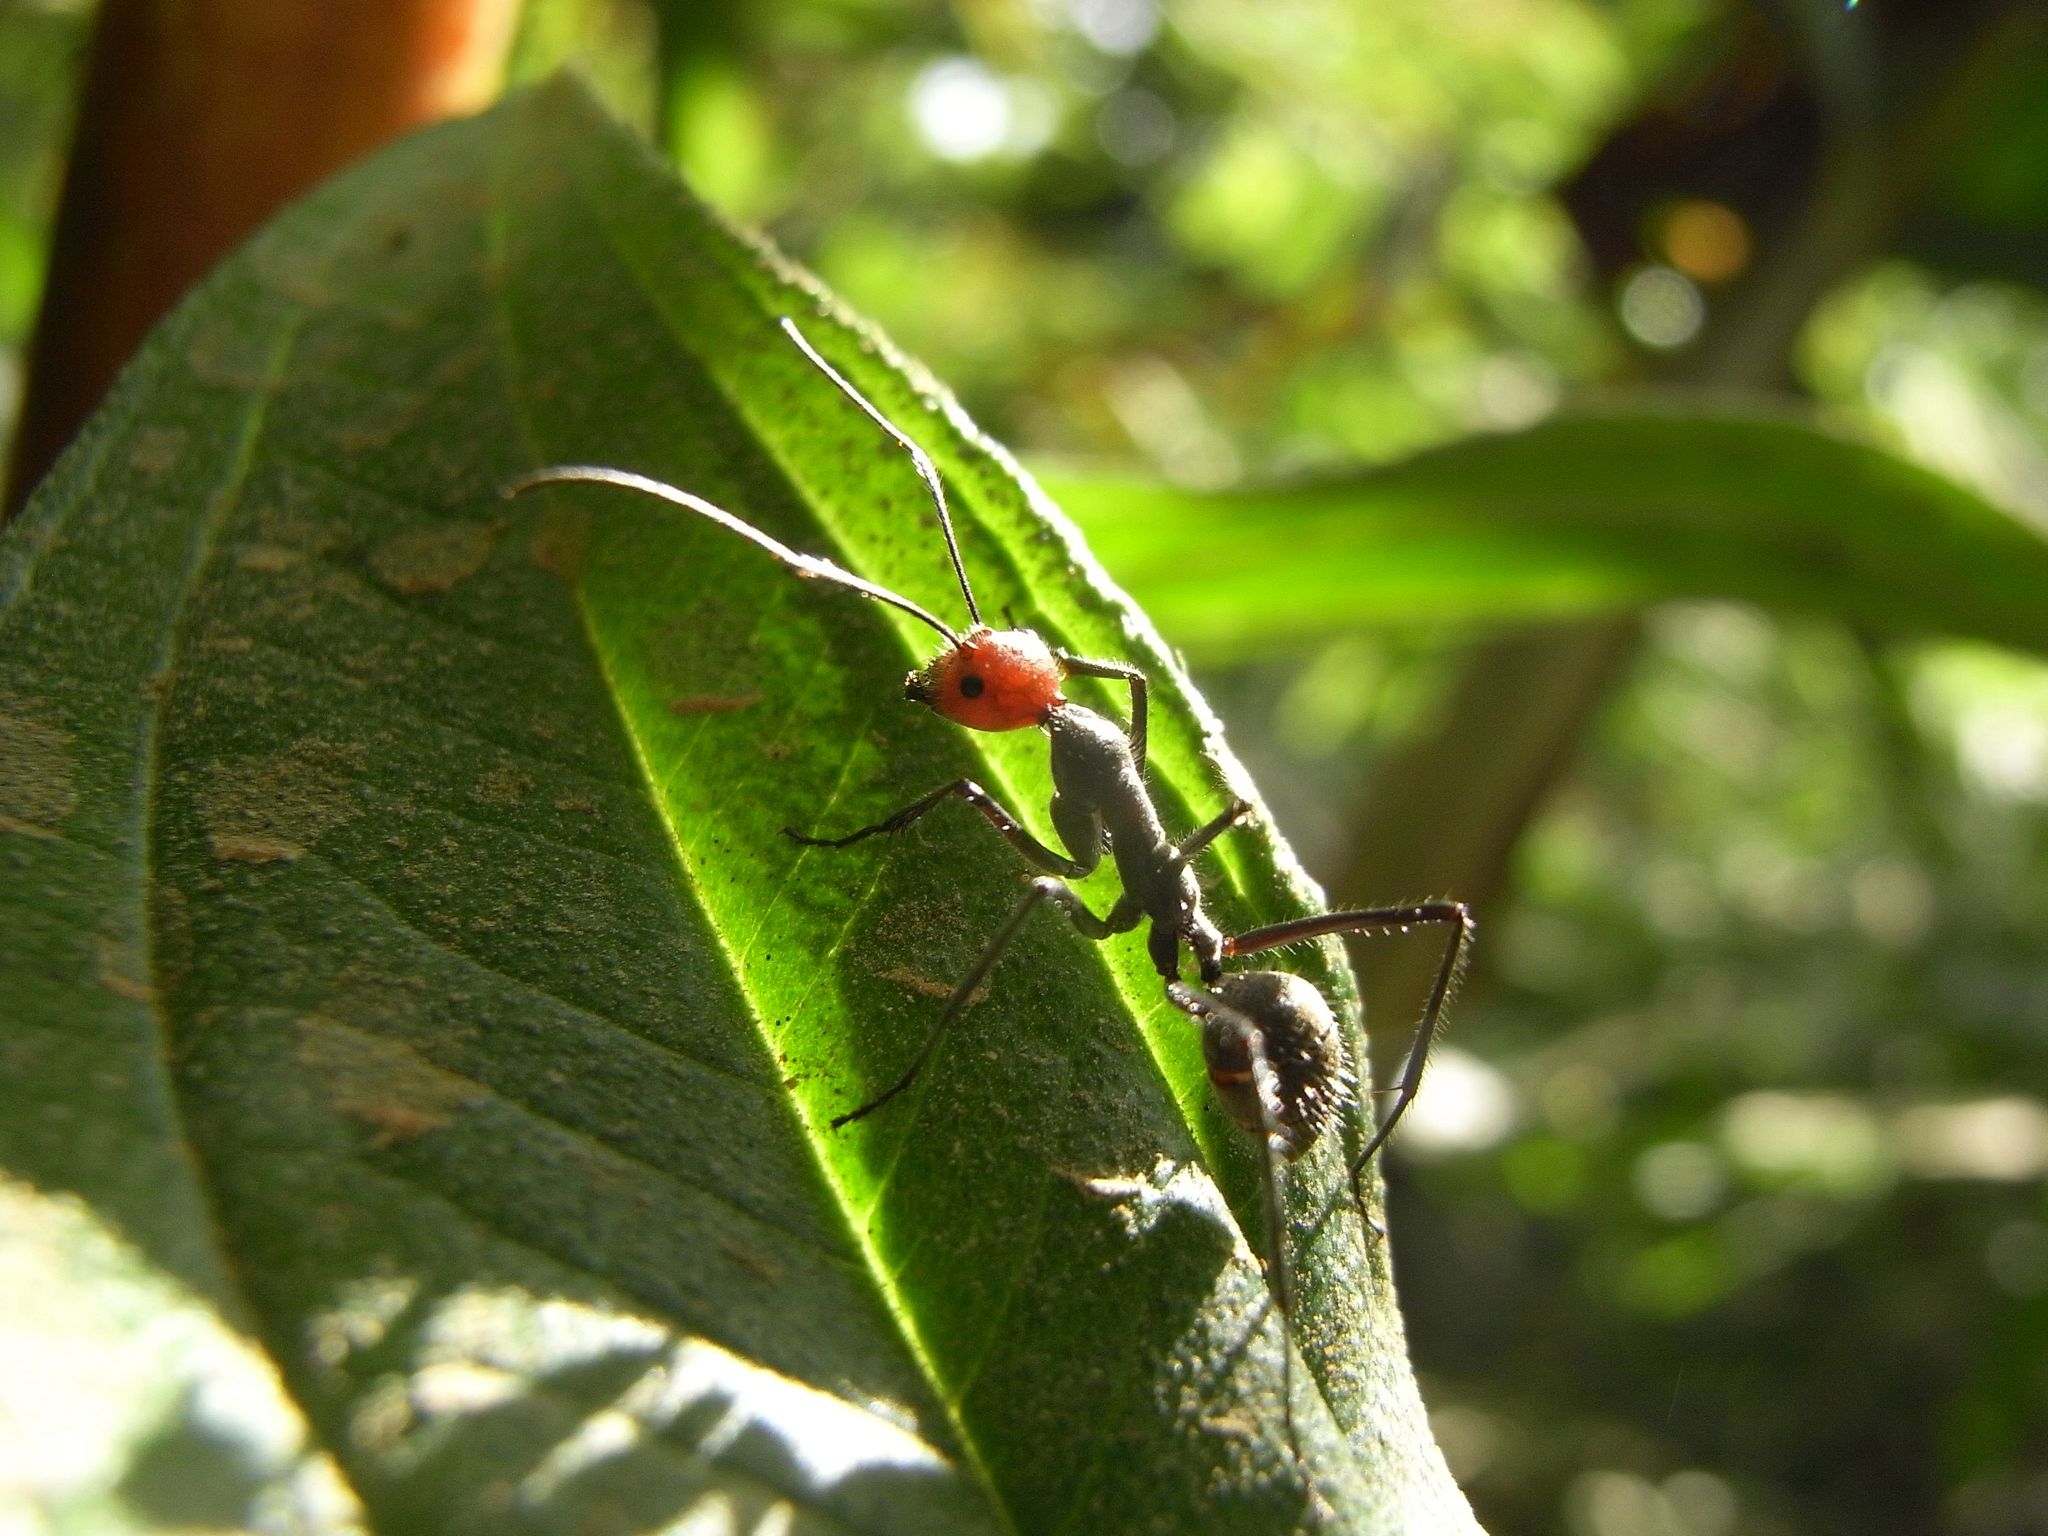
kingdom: Animalia
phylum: Arthropoda
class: Insecta
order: Hymenoptera
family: Formicidae
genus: Camponotus
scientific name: Camponotus singularis
